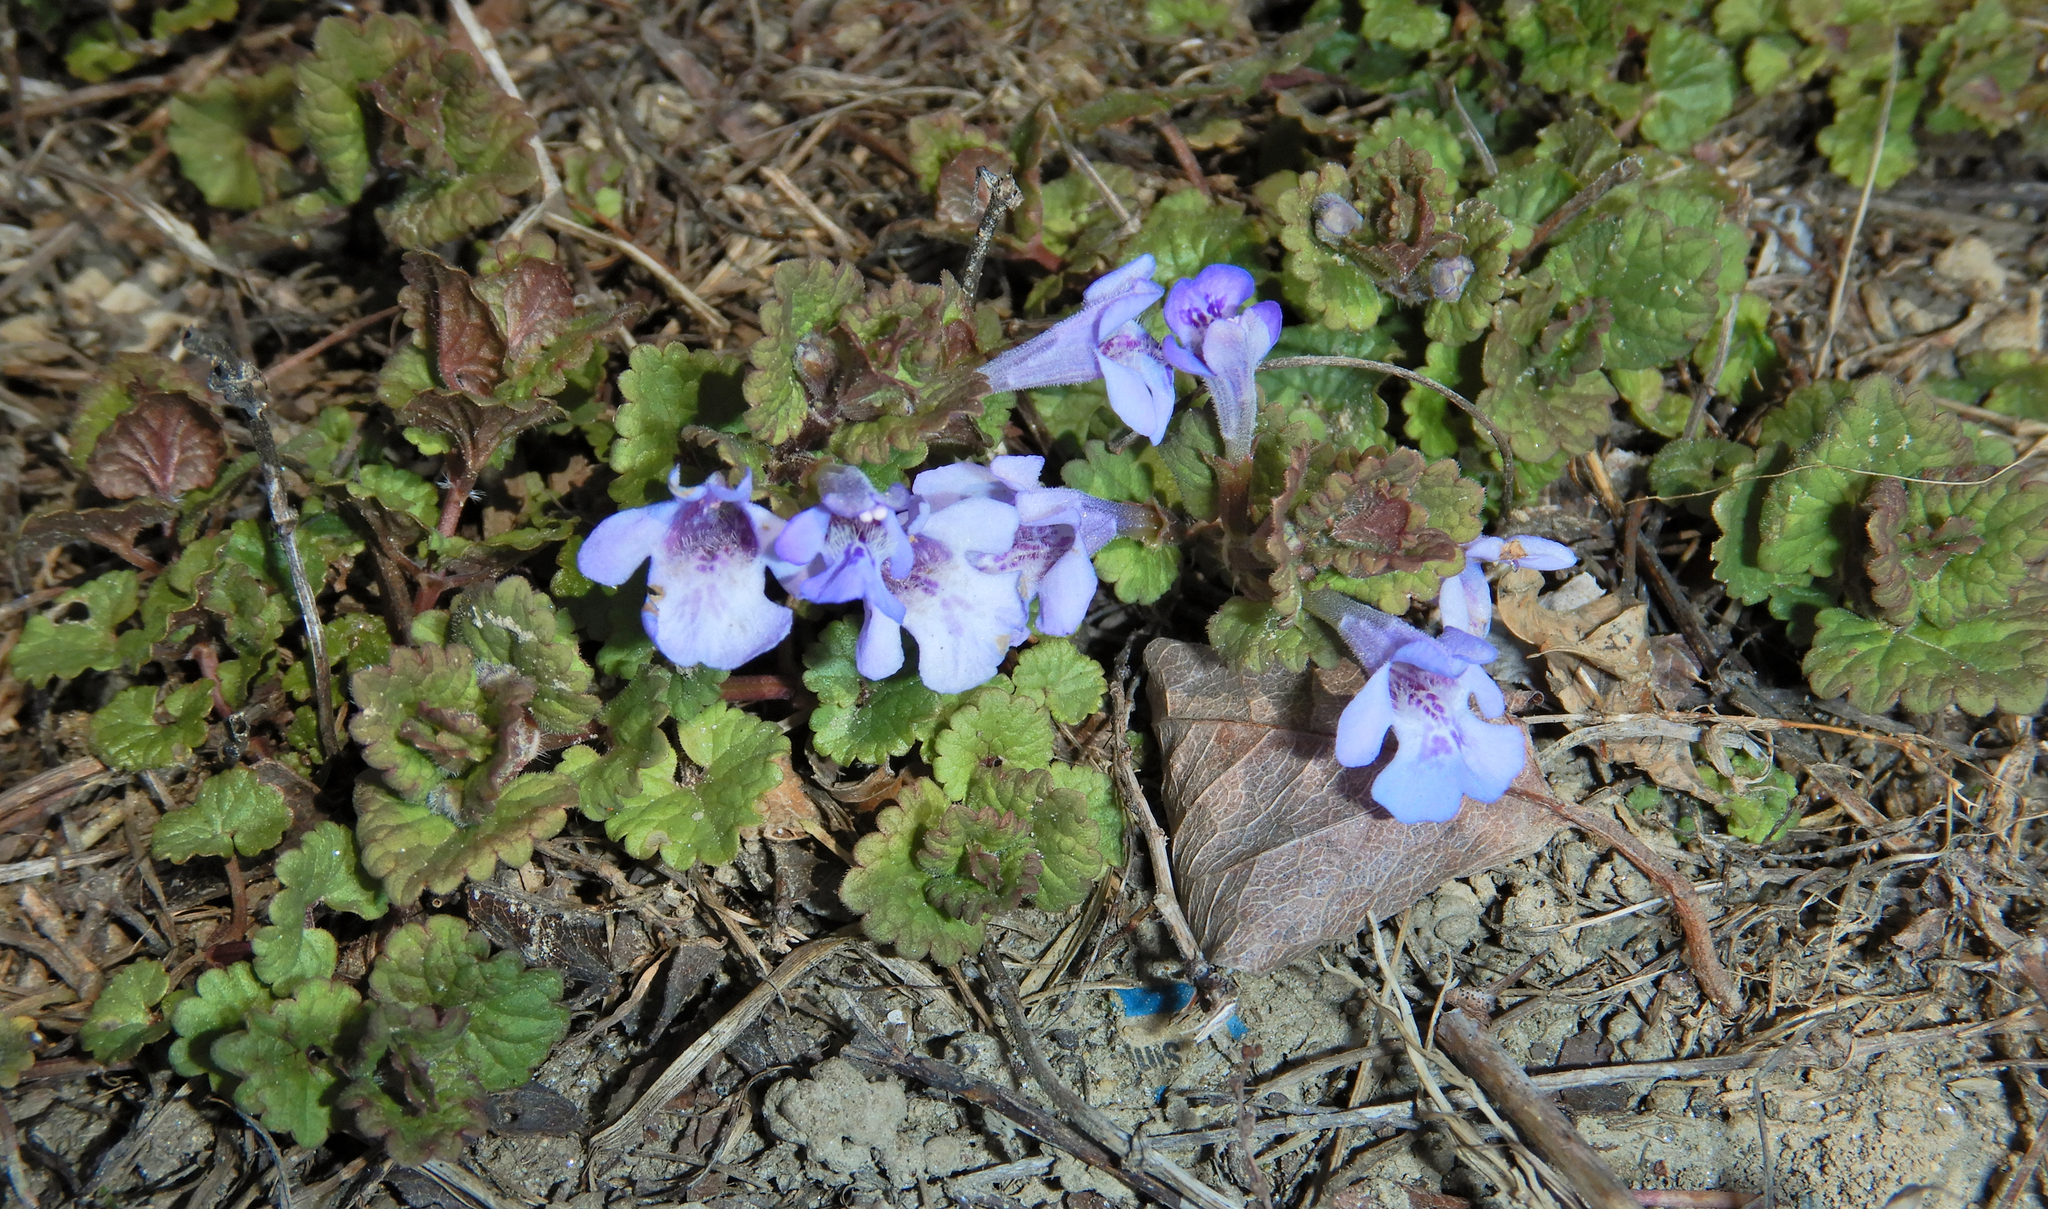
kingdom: Plantae
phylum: Tracheophyta
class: Magnoliopsida
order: Lamiales
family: Lamiaceae
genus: Glechoma
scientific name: Glechoma hederacea
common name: Ground ivy
